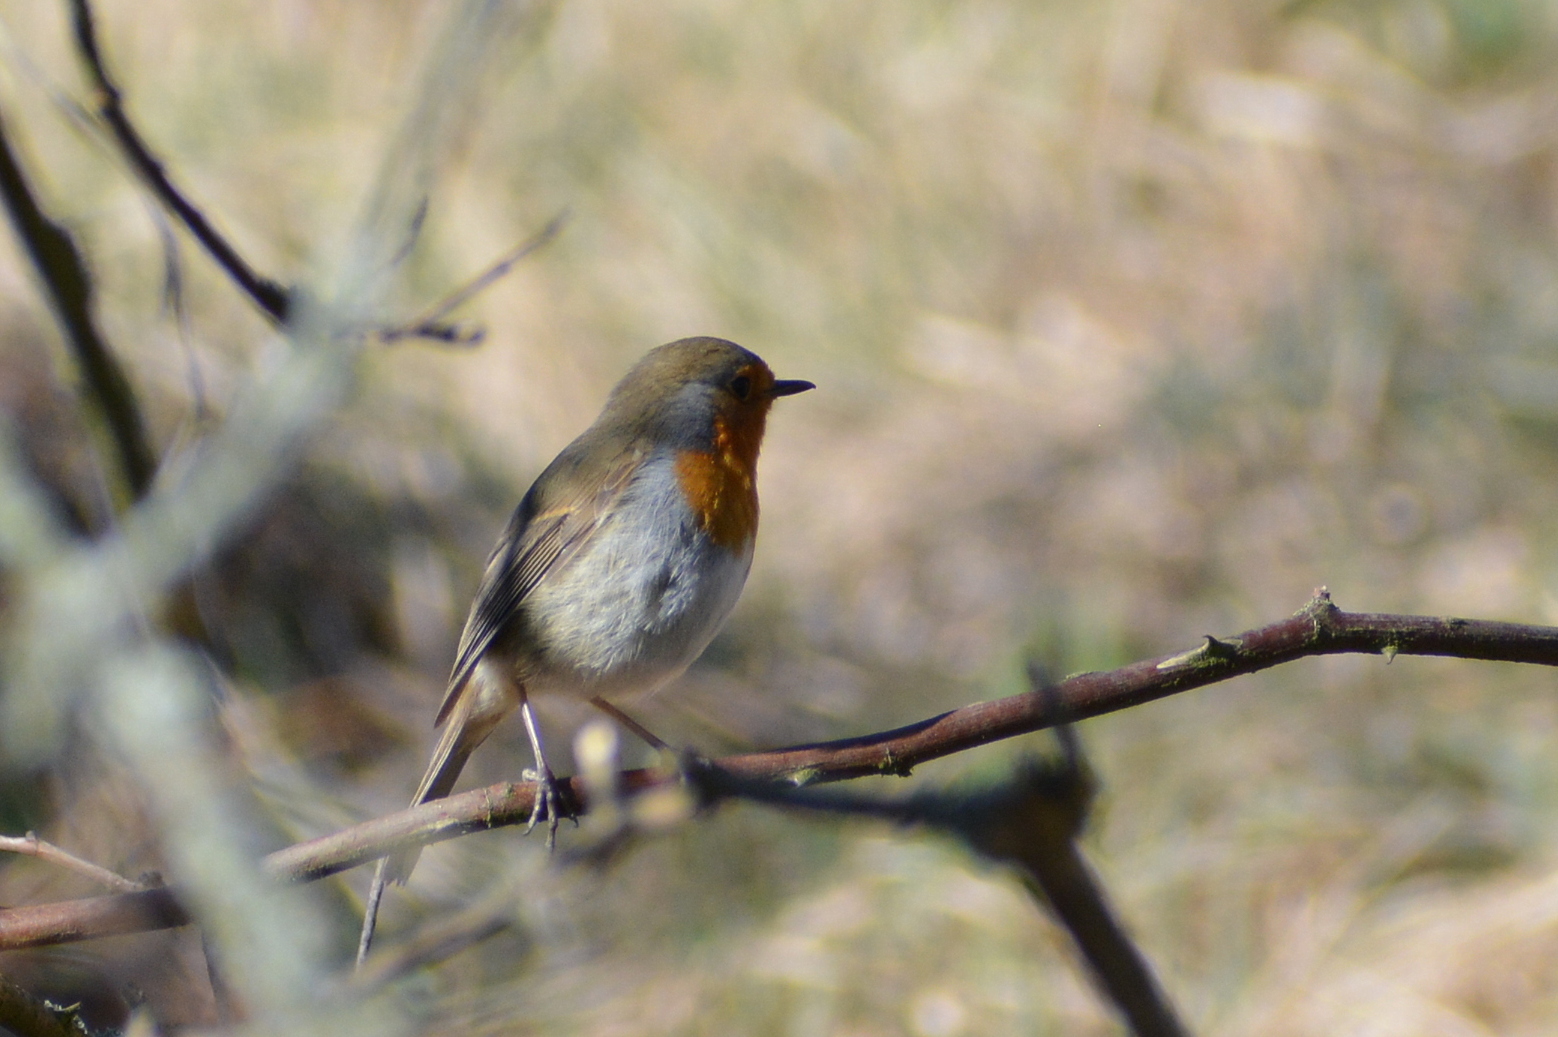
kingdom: Animalia
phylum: Chordata
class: Aves
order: Passeriformes
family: Muscicapidae
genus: Erithacus
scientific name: Erithacus rubecula
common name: European robin
